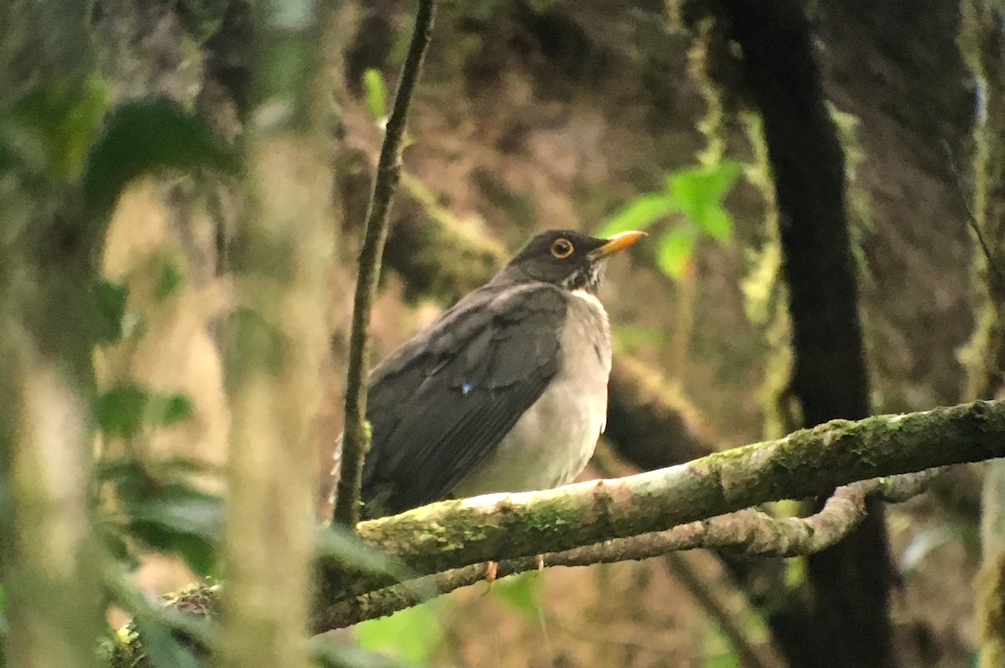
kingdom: Animalia
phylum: Chordata
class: Aves
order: Passeriformes
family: Turdidae
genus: Turdus
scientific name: Turdus assimilis
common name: White-throated thrush
